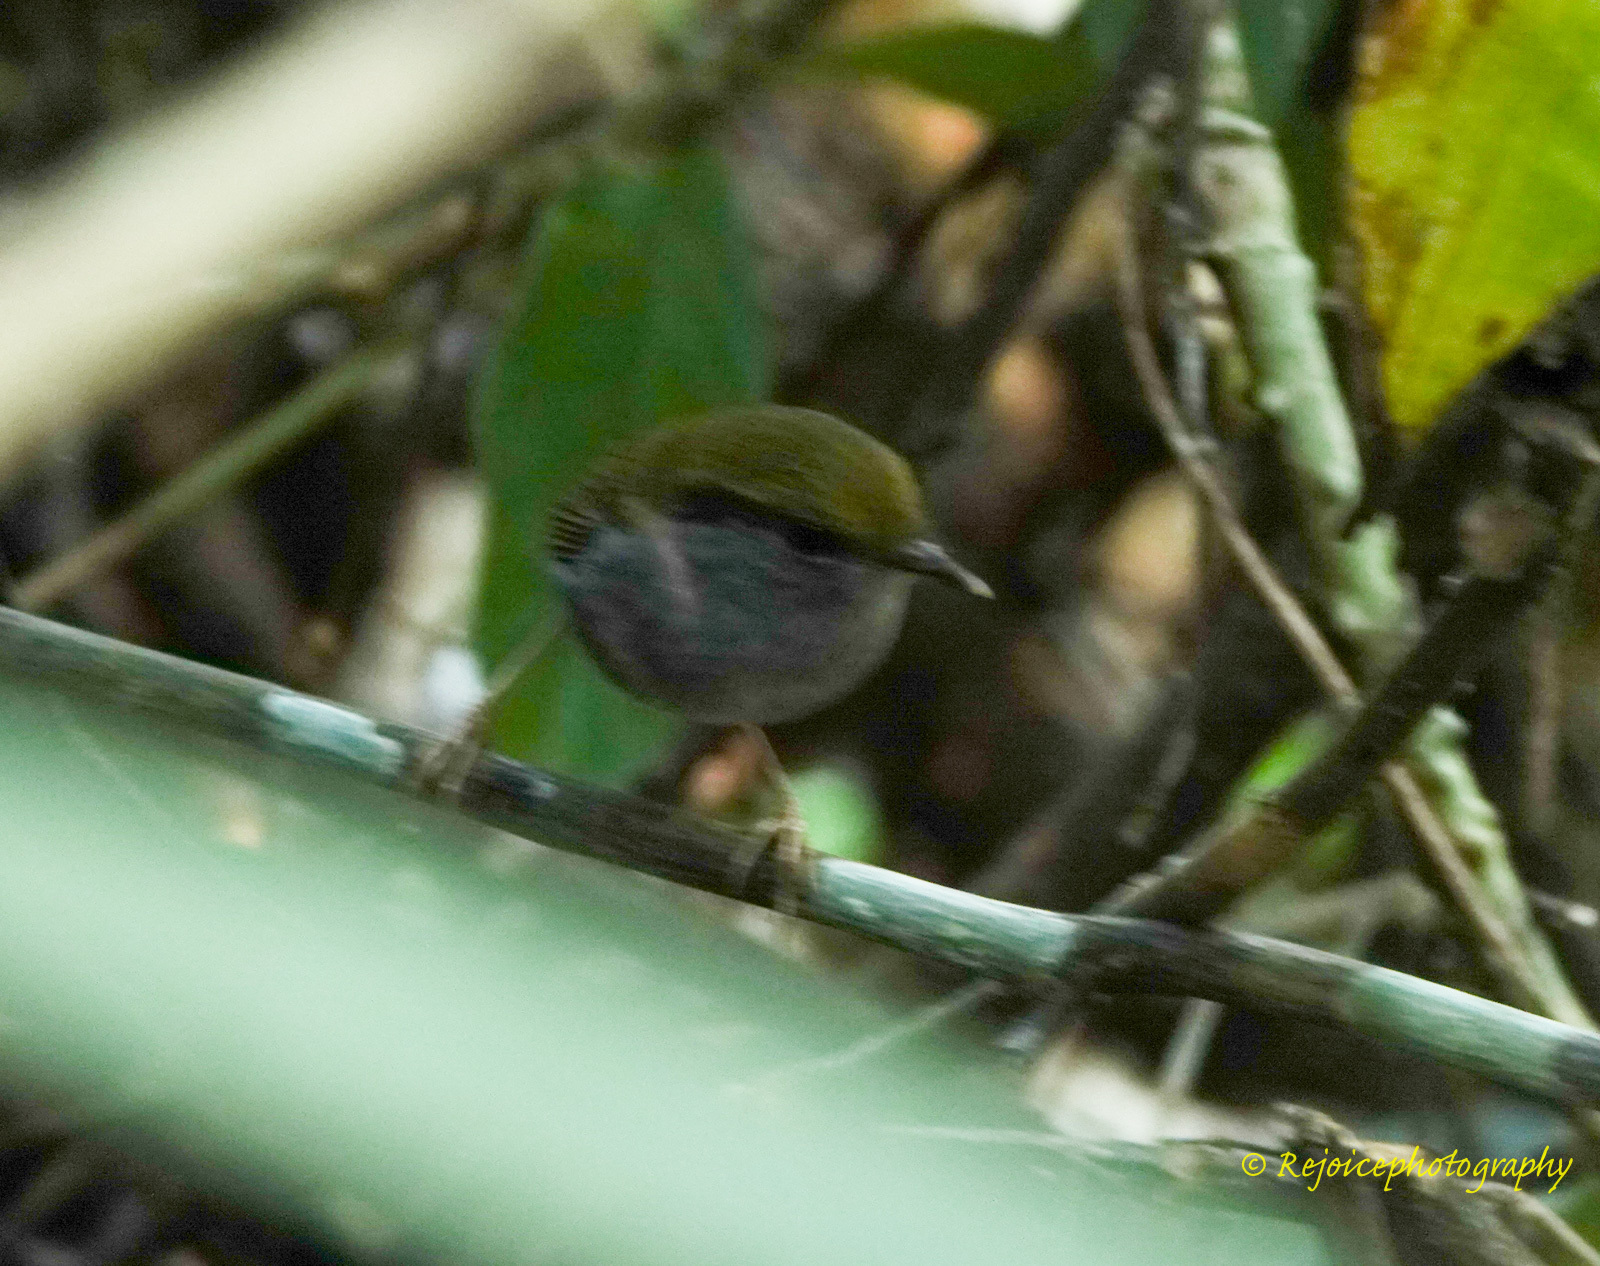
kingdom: Animalia
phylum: Chordata
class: Aves
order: Passeriformes
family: Cettiidae
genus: Tesia
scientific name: Tesia olivea
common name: Slaty-bellied tesia
